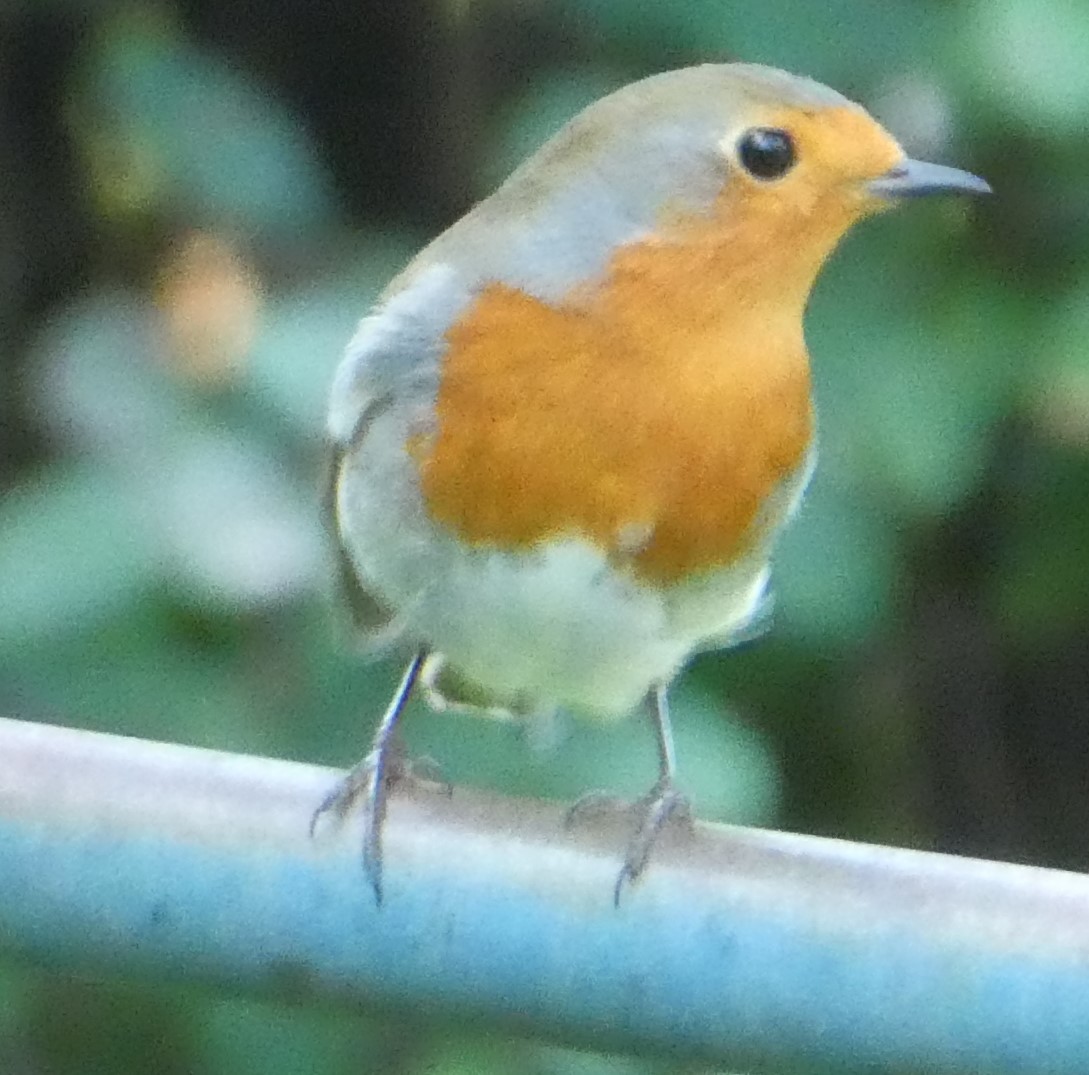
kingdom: Animalia
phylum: Chordata
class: Aves
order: Passeriformes
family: Muscicapidae
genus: Erithacus
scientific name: Erithacus rubecula
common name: European robin
